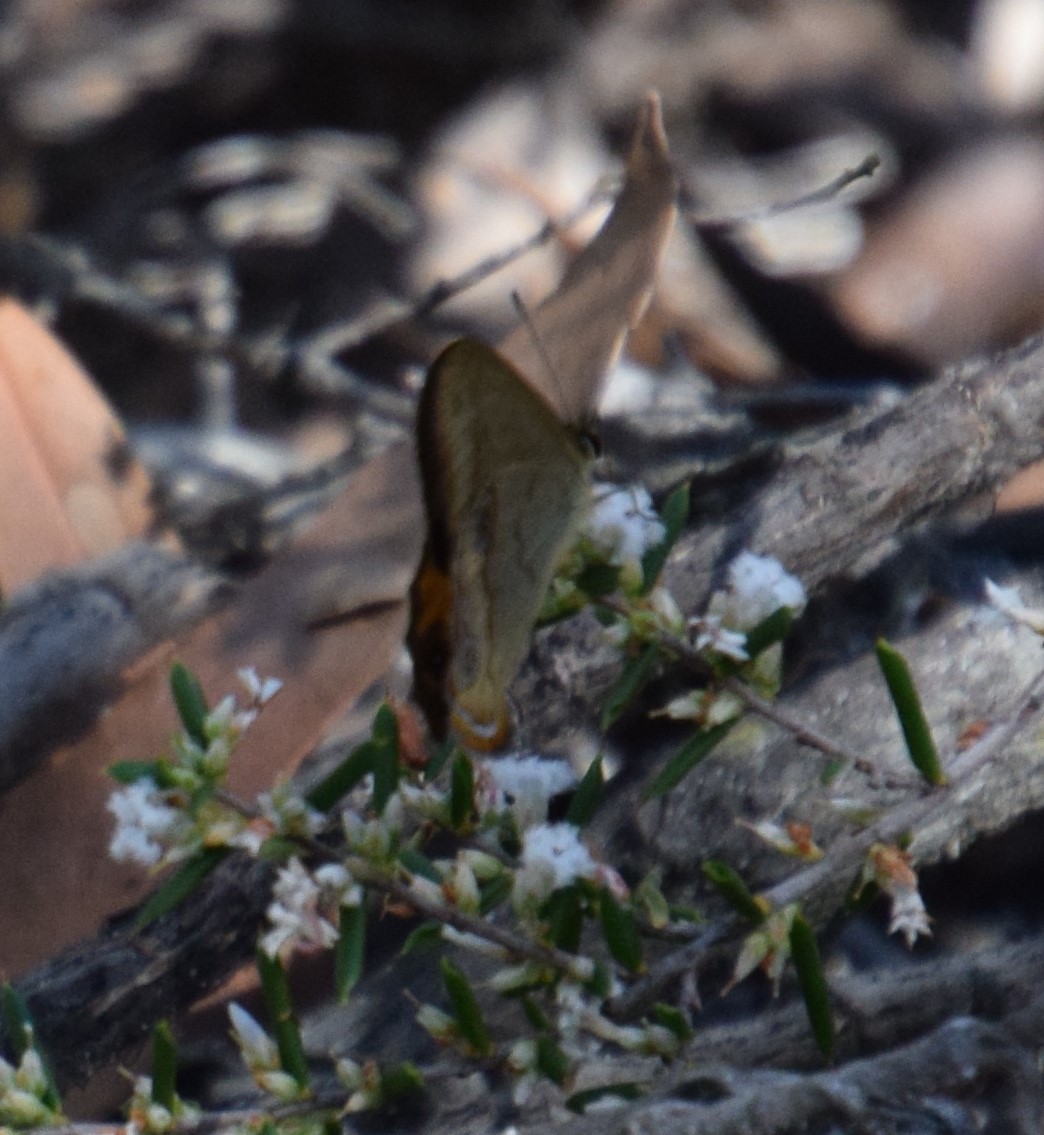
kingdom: Animalia
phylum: Arthropoda
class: Insecta
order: Lepidoptera
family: Nymphalidae
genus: Hypocysta
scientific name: Hypocysta metirius
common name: Brown ringlet
